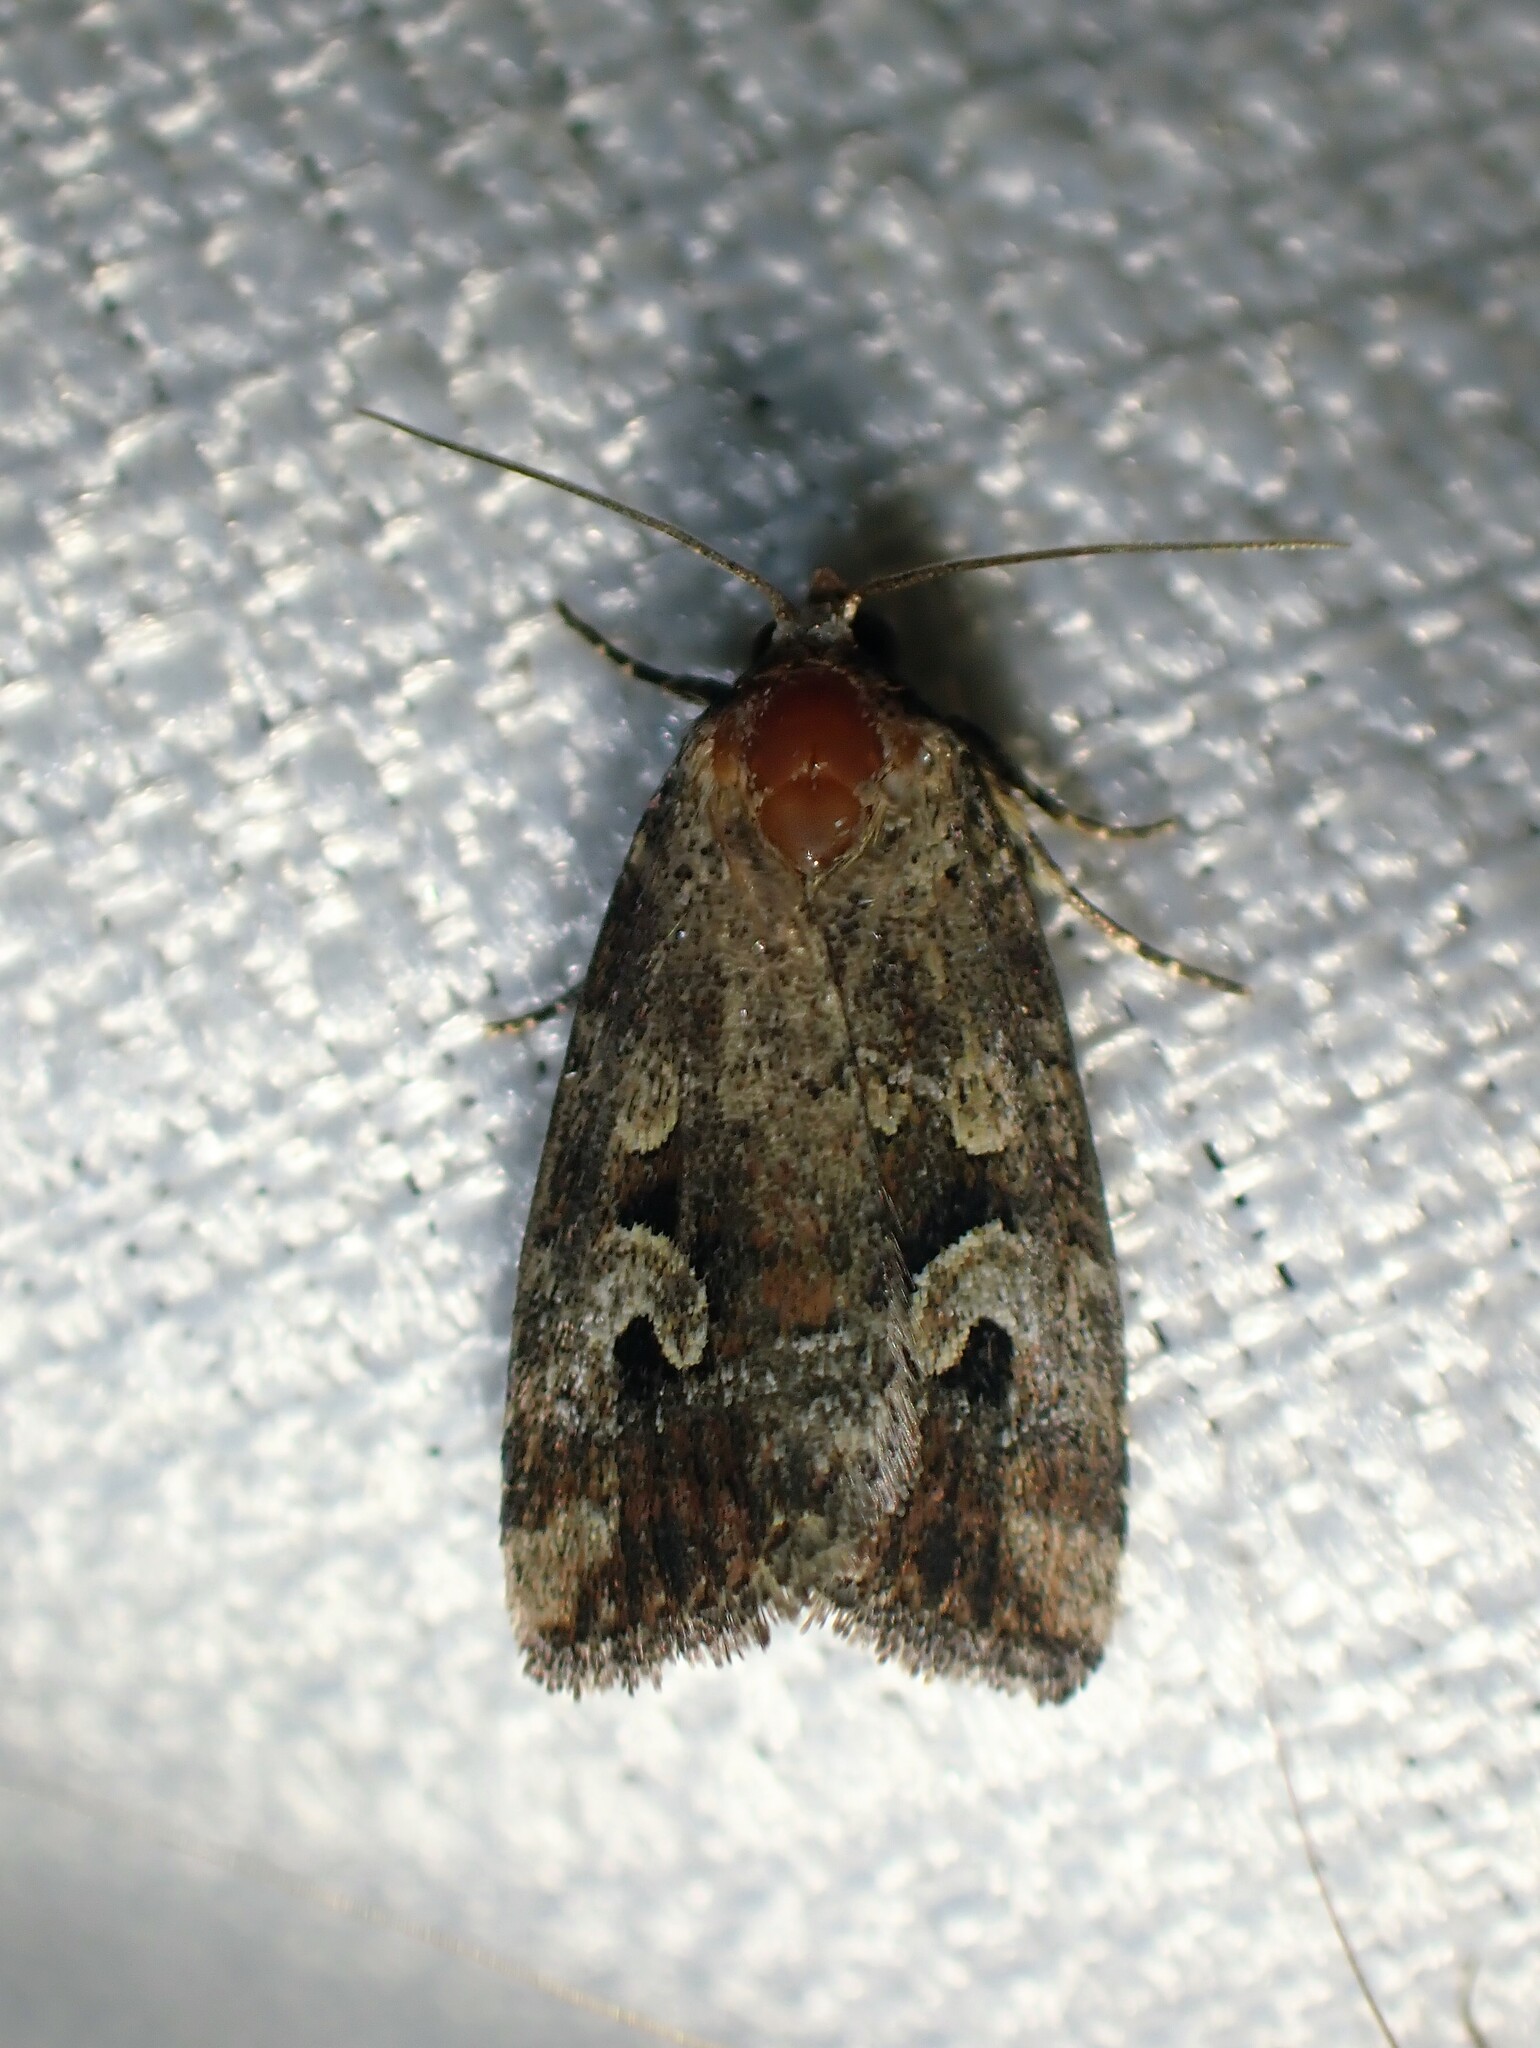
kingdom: Animalia
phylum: Arthropoda
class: Insecta
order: Lepidoptera
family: Noctuidae
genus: Elaphria
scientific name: Elaphria alapallida
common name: Pale-winged midget
